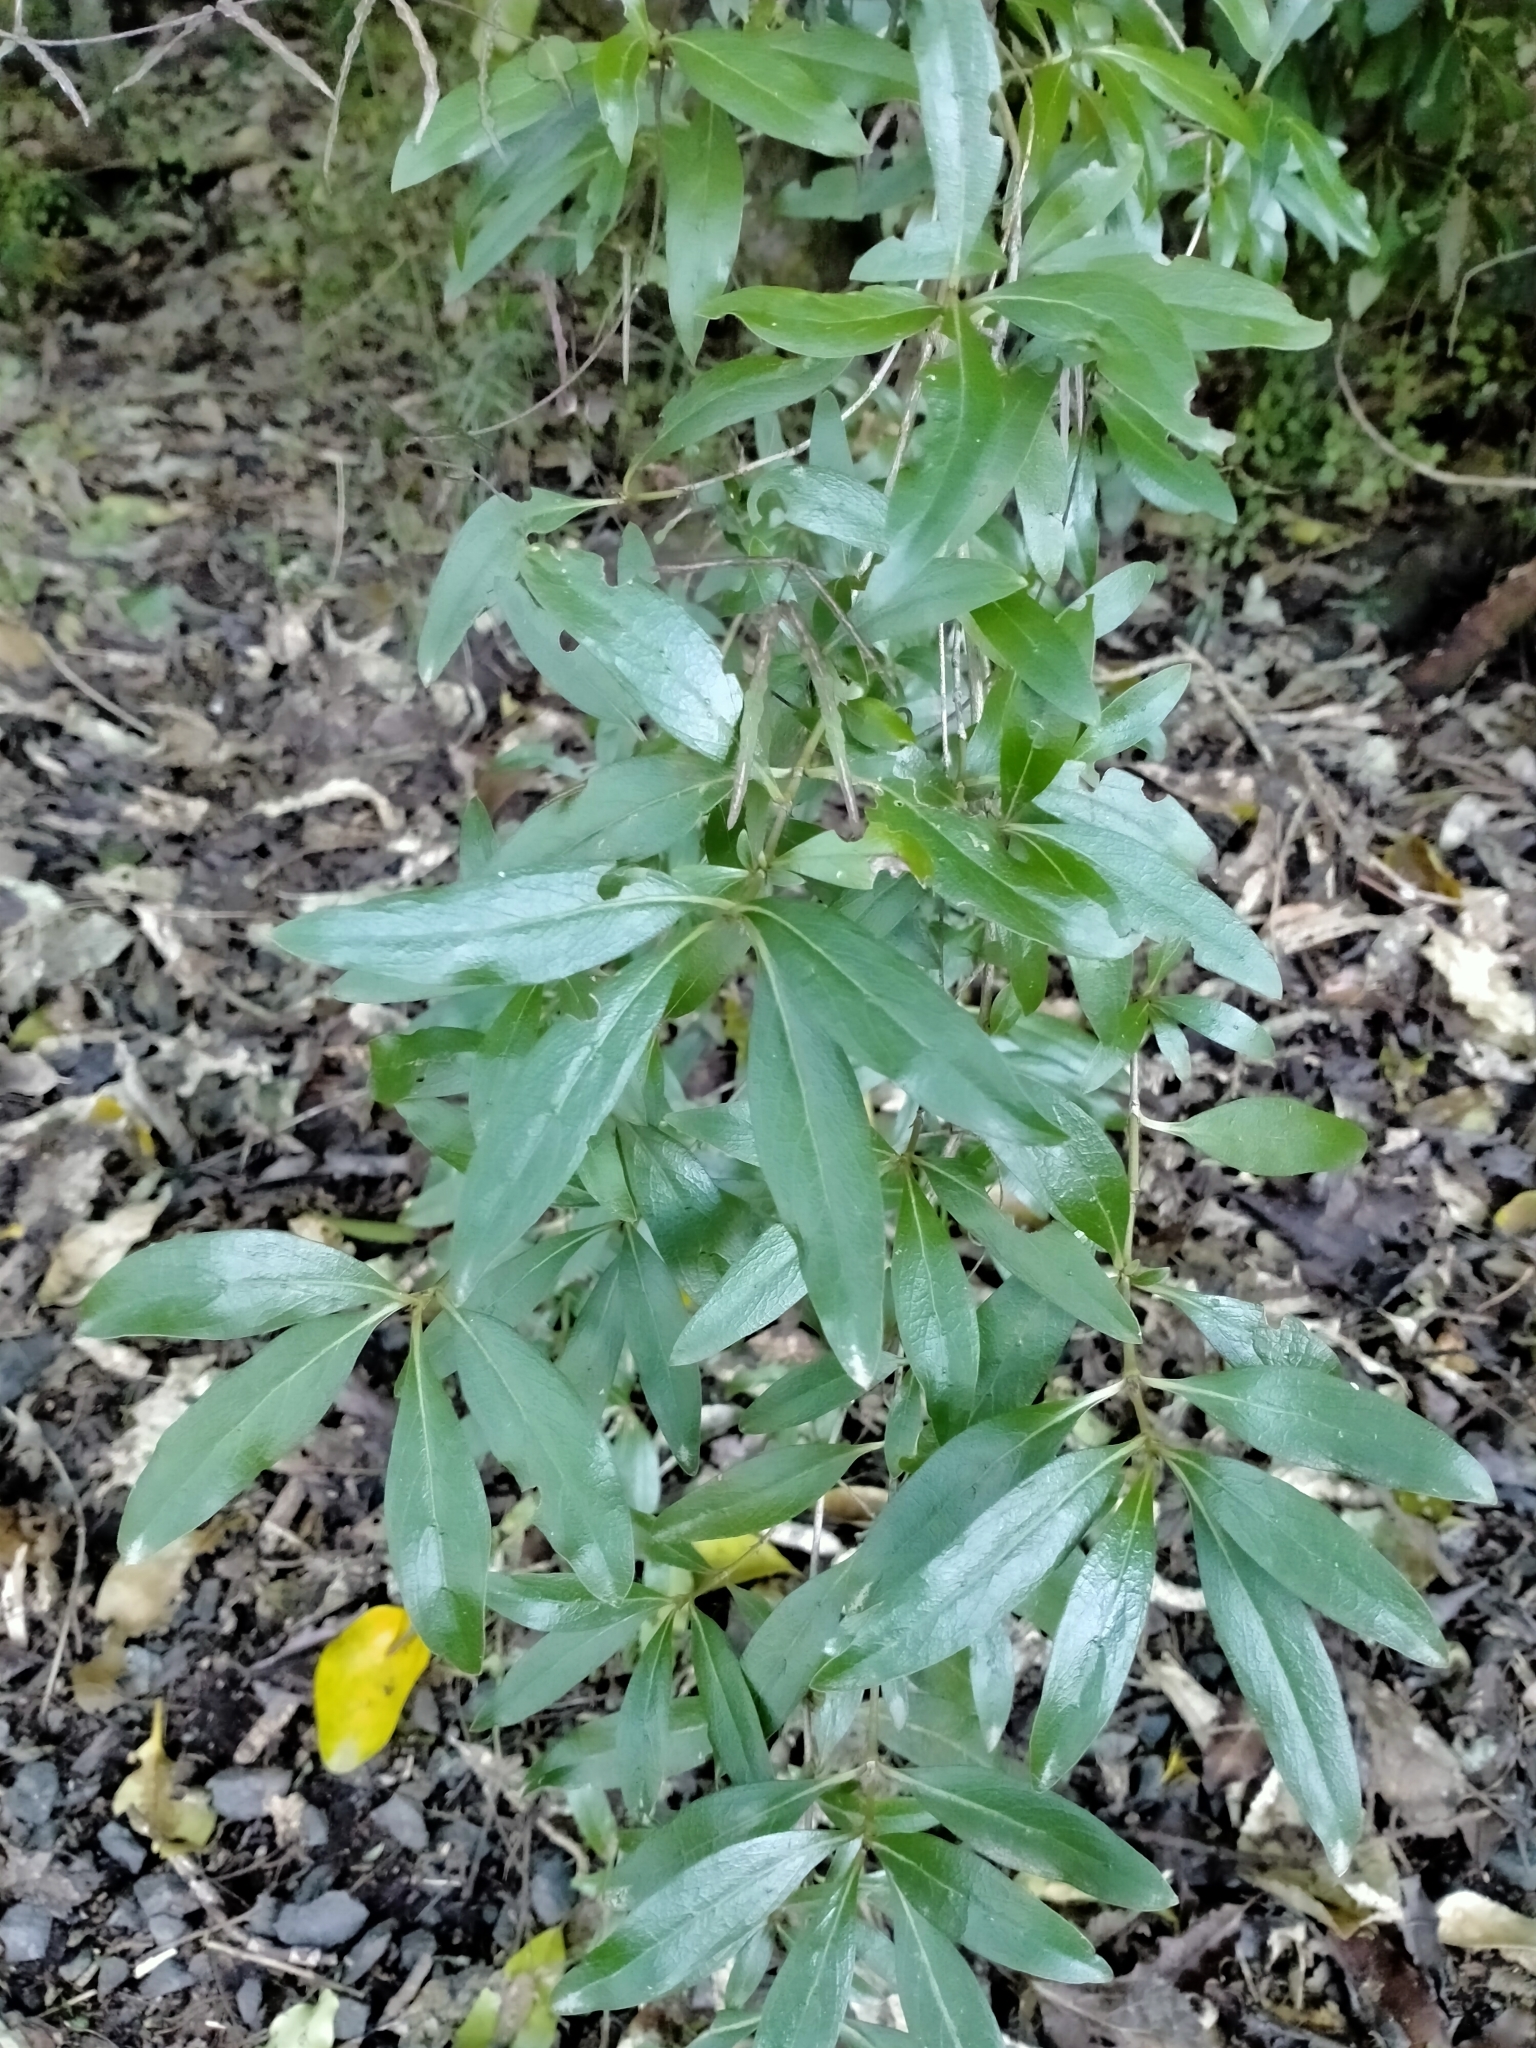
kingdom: Plantae
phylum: Tracheophyta
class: Magnoliopsida
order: Gentianales
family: Rubiaceae
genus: Coprosma
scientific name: Coprosma cunninghamii
